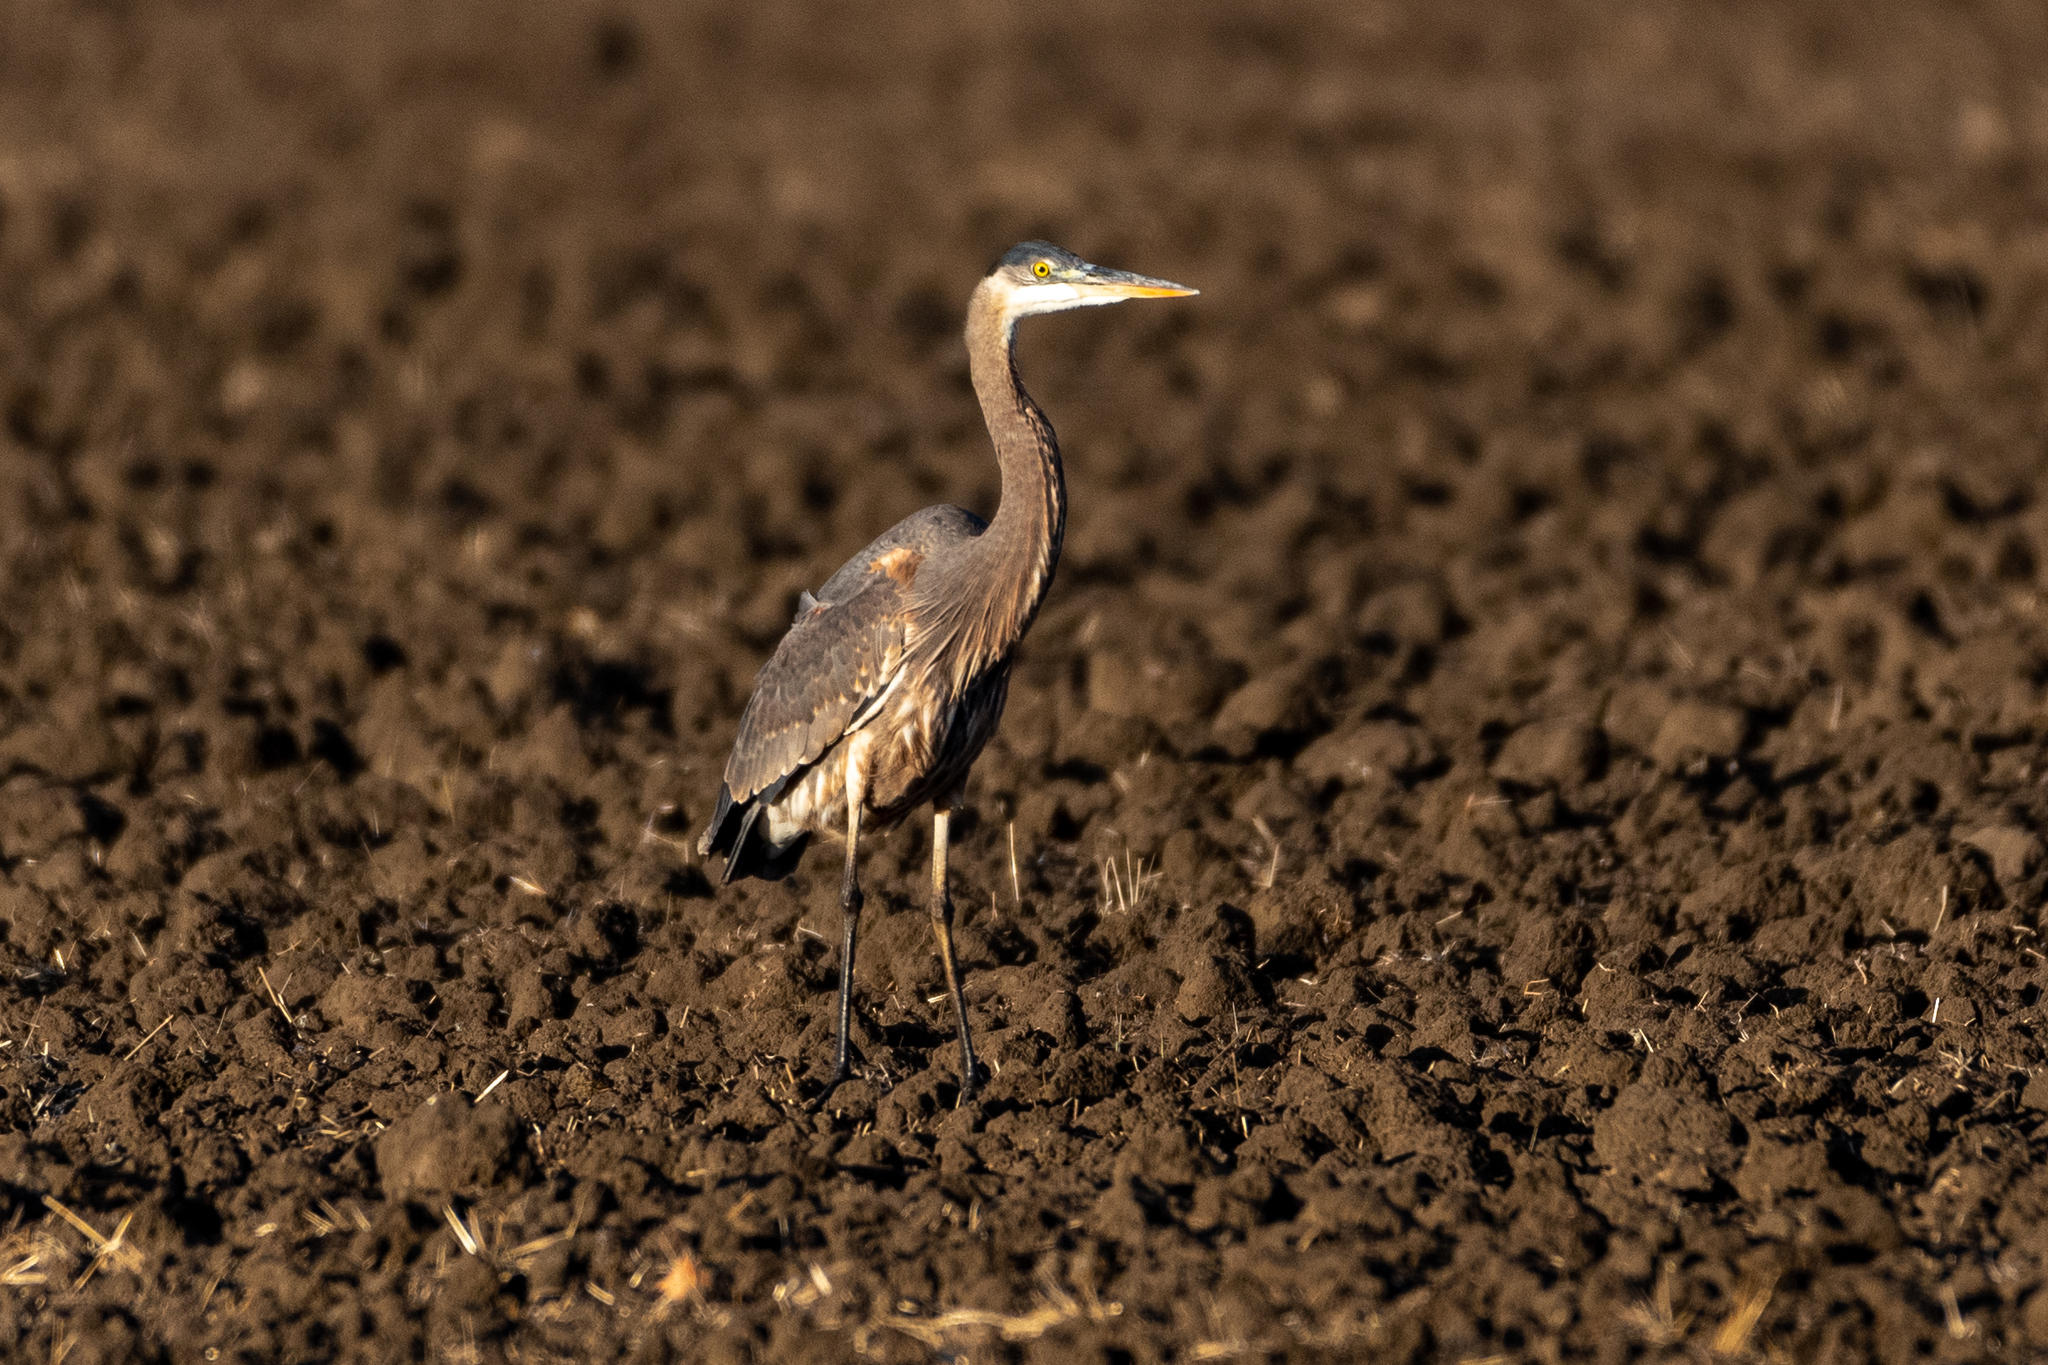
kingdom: Animalia
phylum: Chordata
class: Aves
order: Pelecaniformes
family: Ardeidae
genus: Ardea
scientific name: Ardea herodias
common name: Great blue heron
